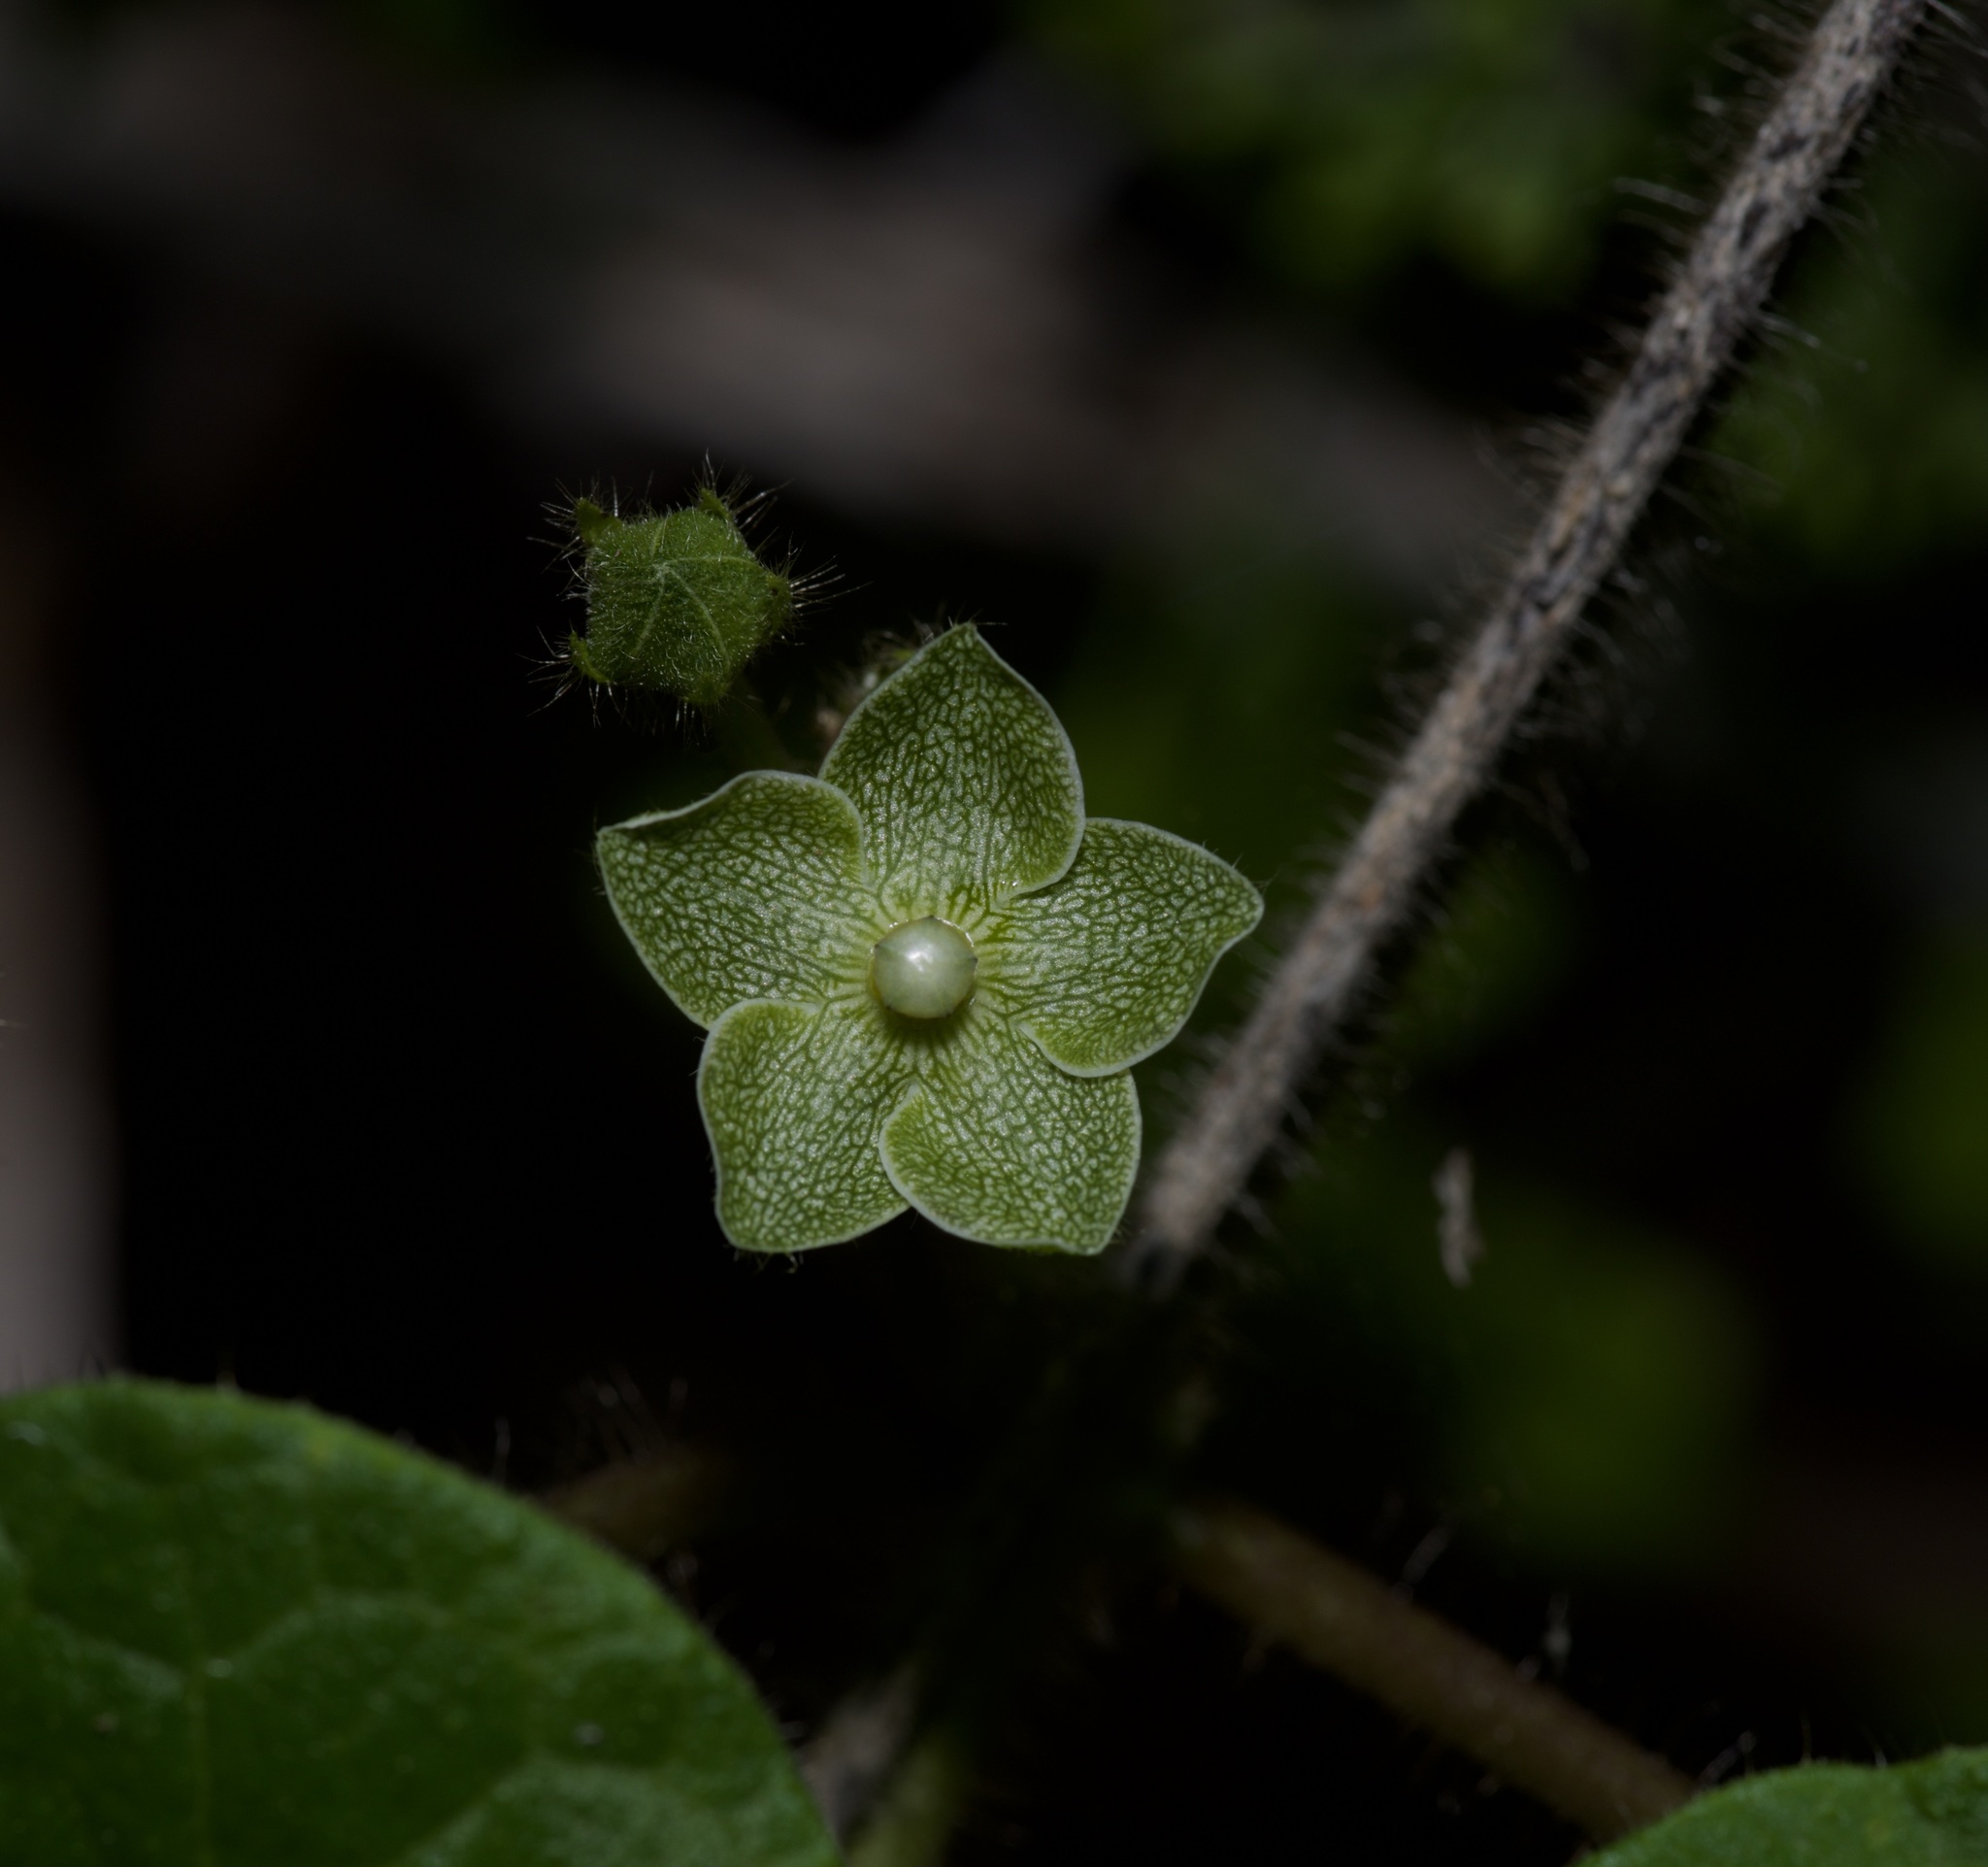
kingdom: Plantae
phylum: Tracheophyta
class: Magnoliopsida
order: Gentianales
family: Apocynaceae
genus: Dictyanthus
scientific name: Dictyanthus reticulatus
